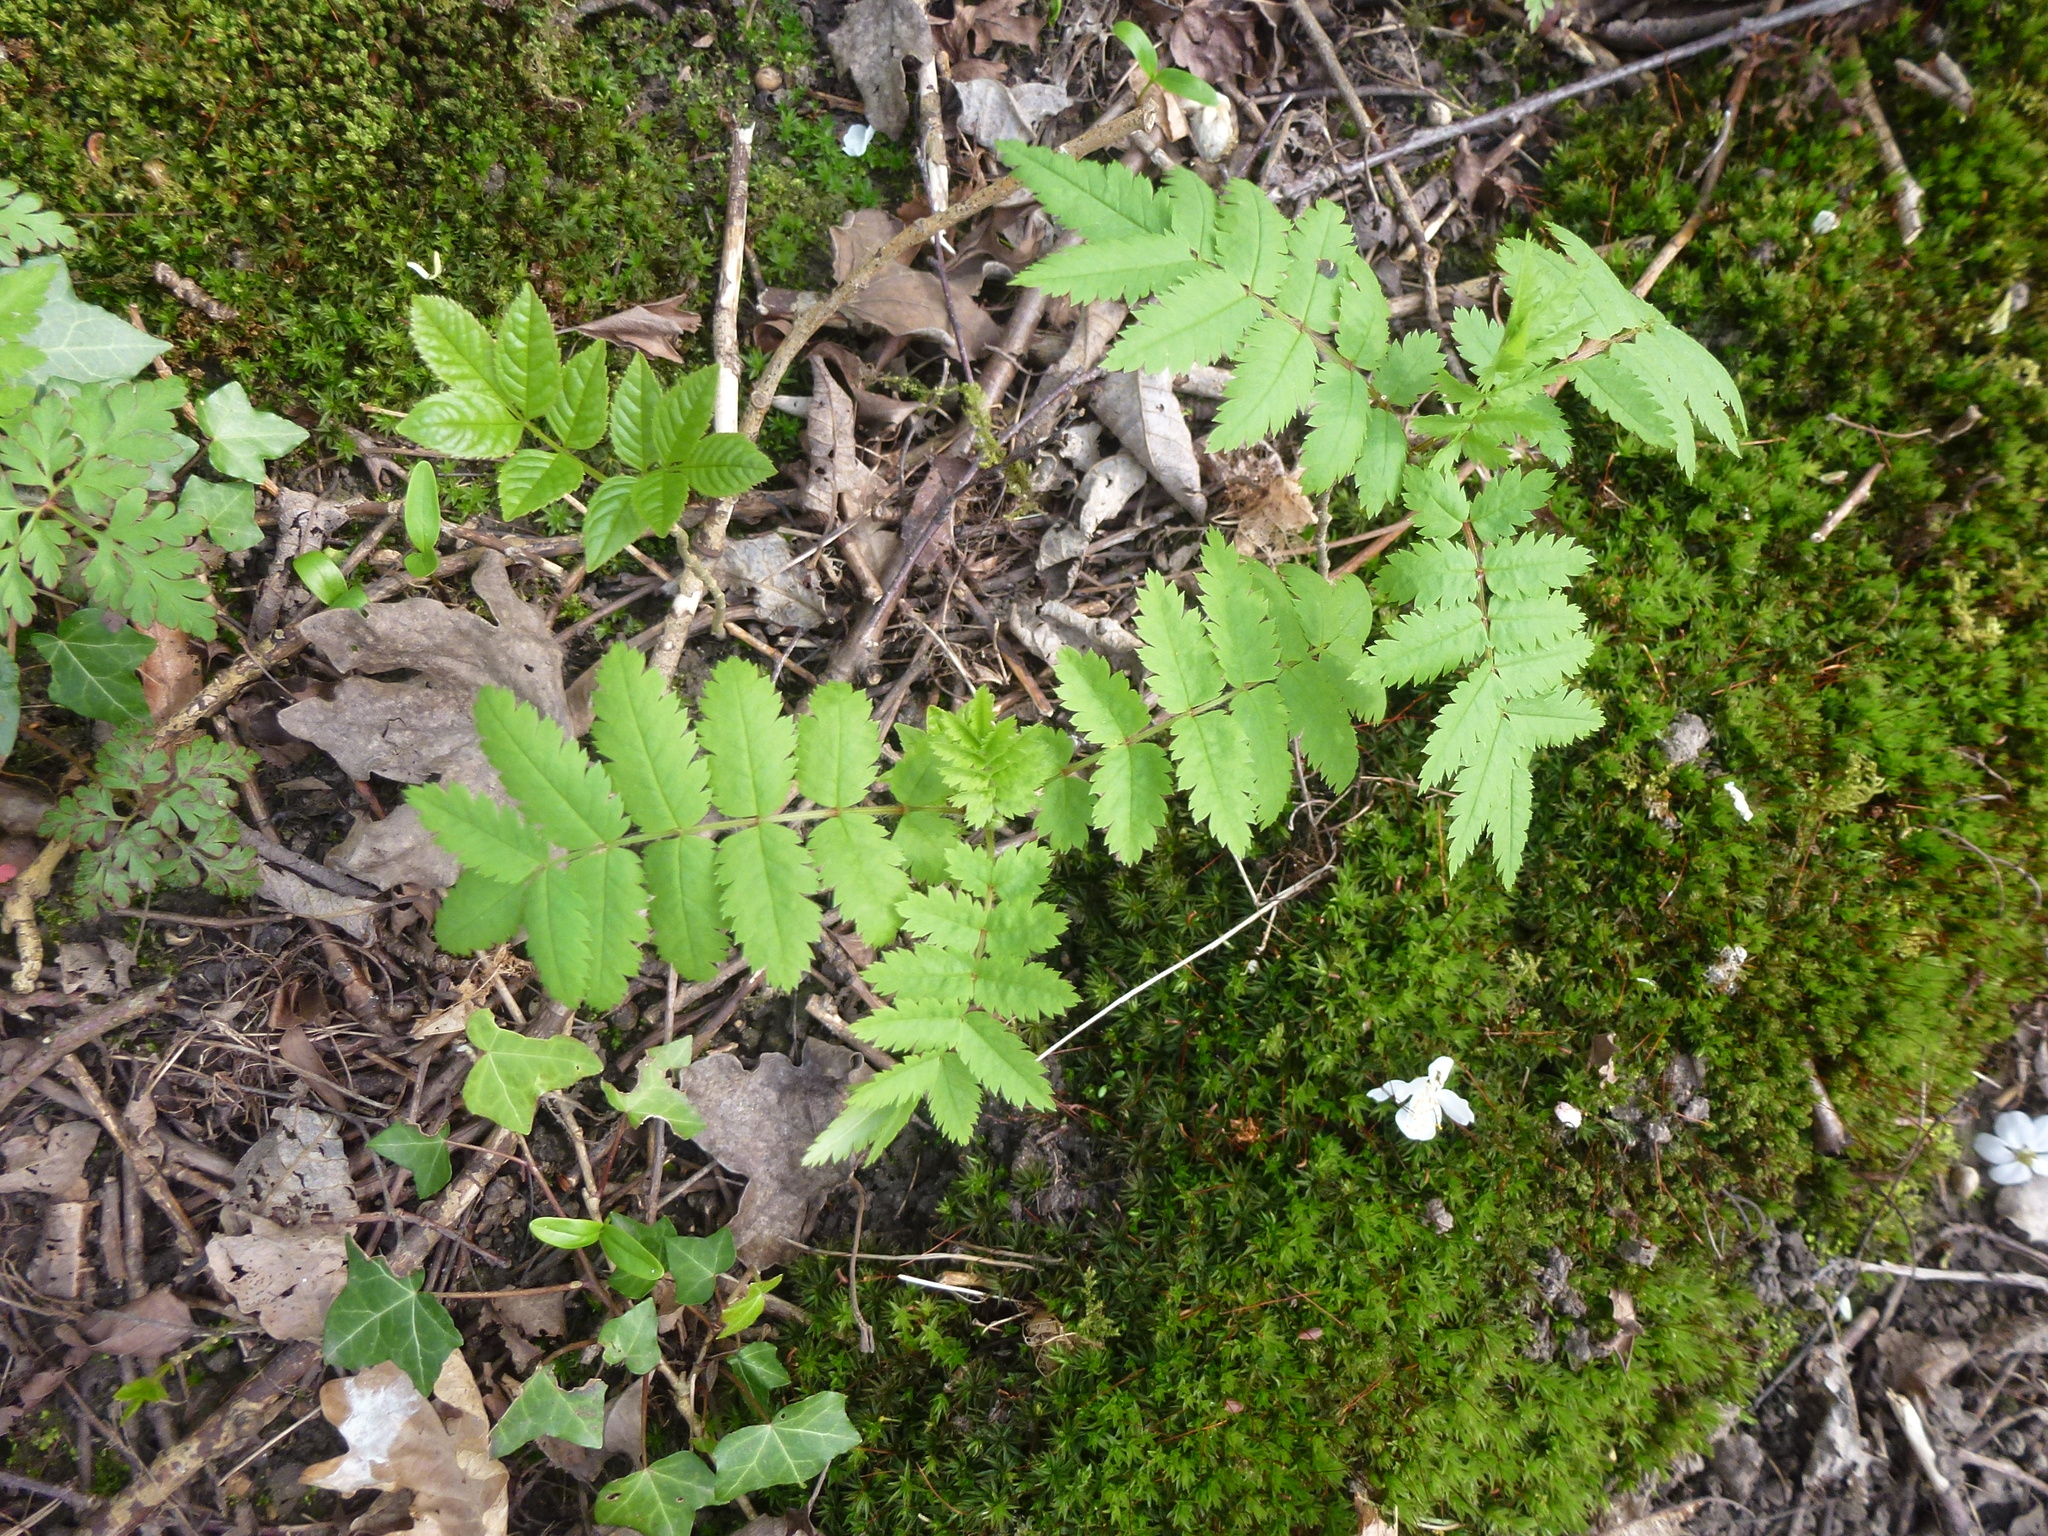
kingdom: Plantae
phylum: Tracheophyta
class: Magnoliopsida
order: Rosales
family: Rosaceae
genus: Sorbus
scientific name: Sorbus aucuparia
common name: Rowan
